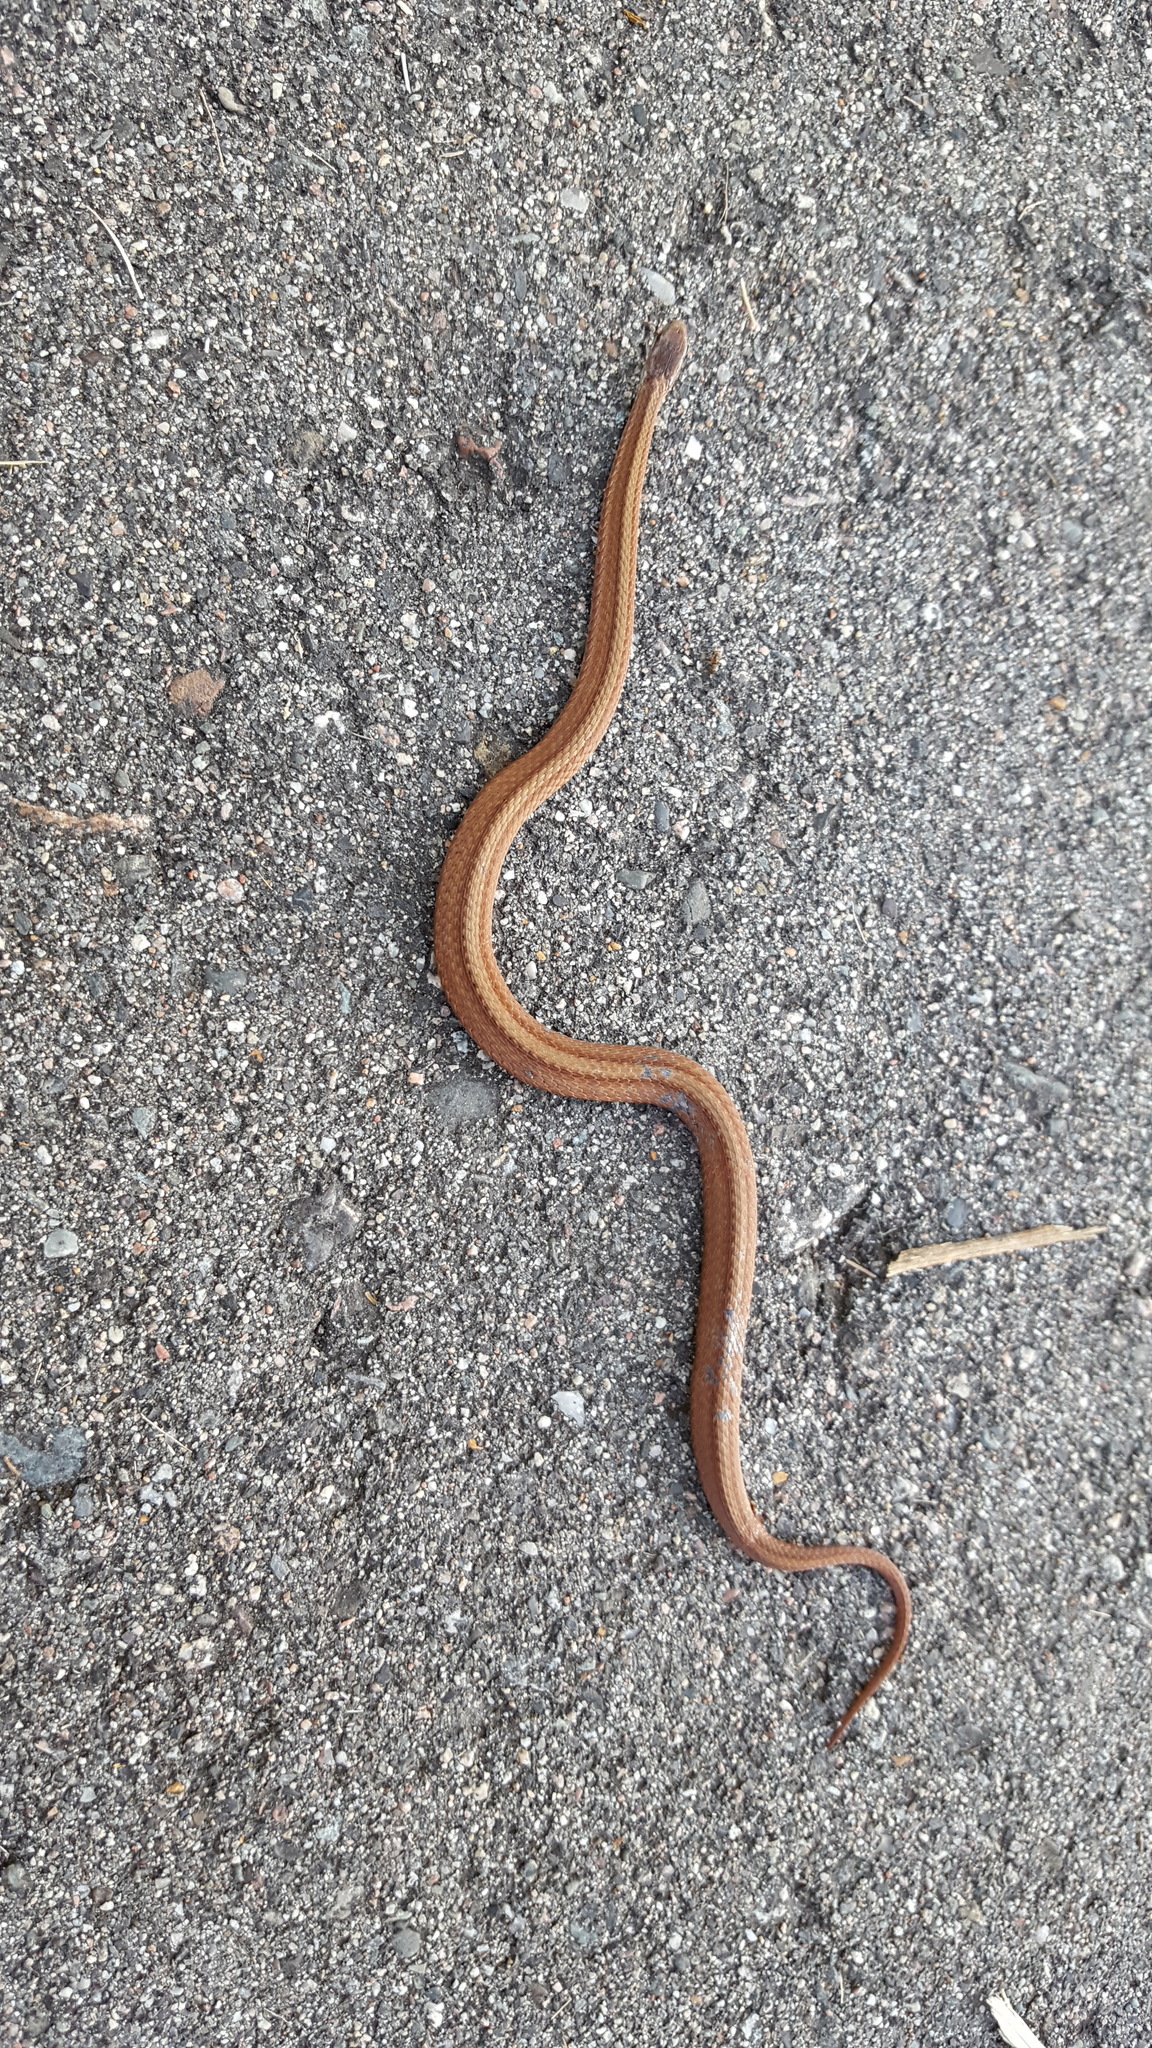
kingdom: Animalia
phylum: Chordata
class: Squamata
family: Colubridae
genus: Storeria
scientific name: Storeria occipitomaculata
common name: Redbelly snake
